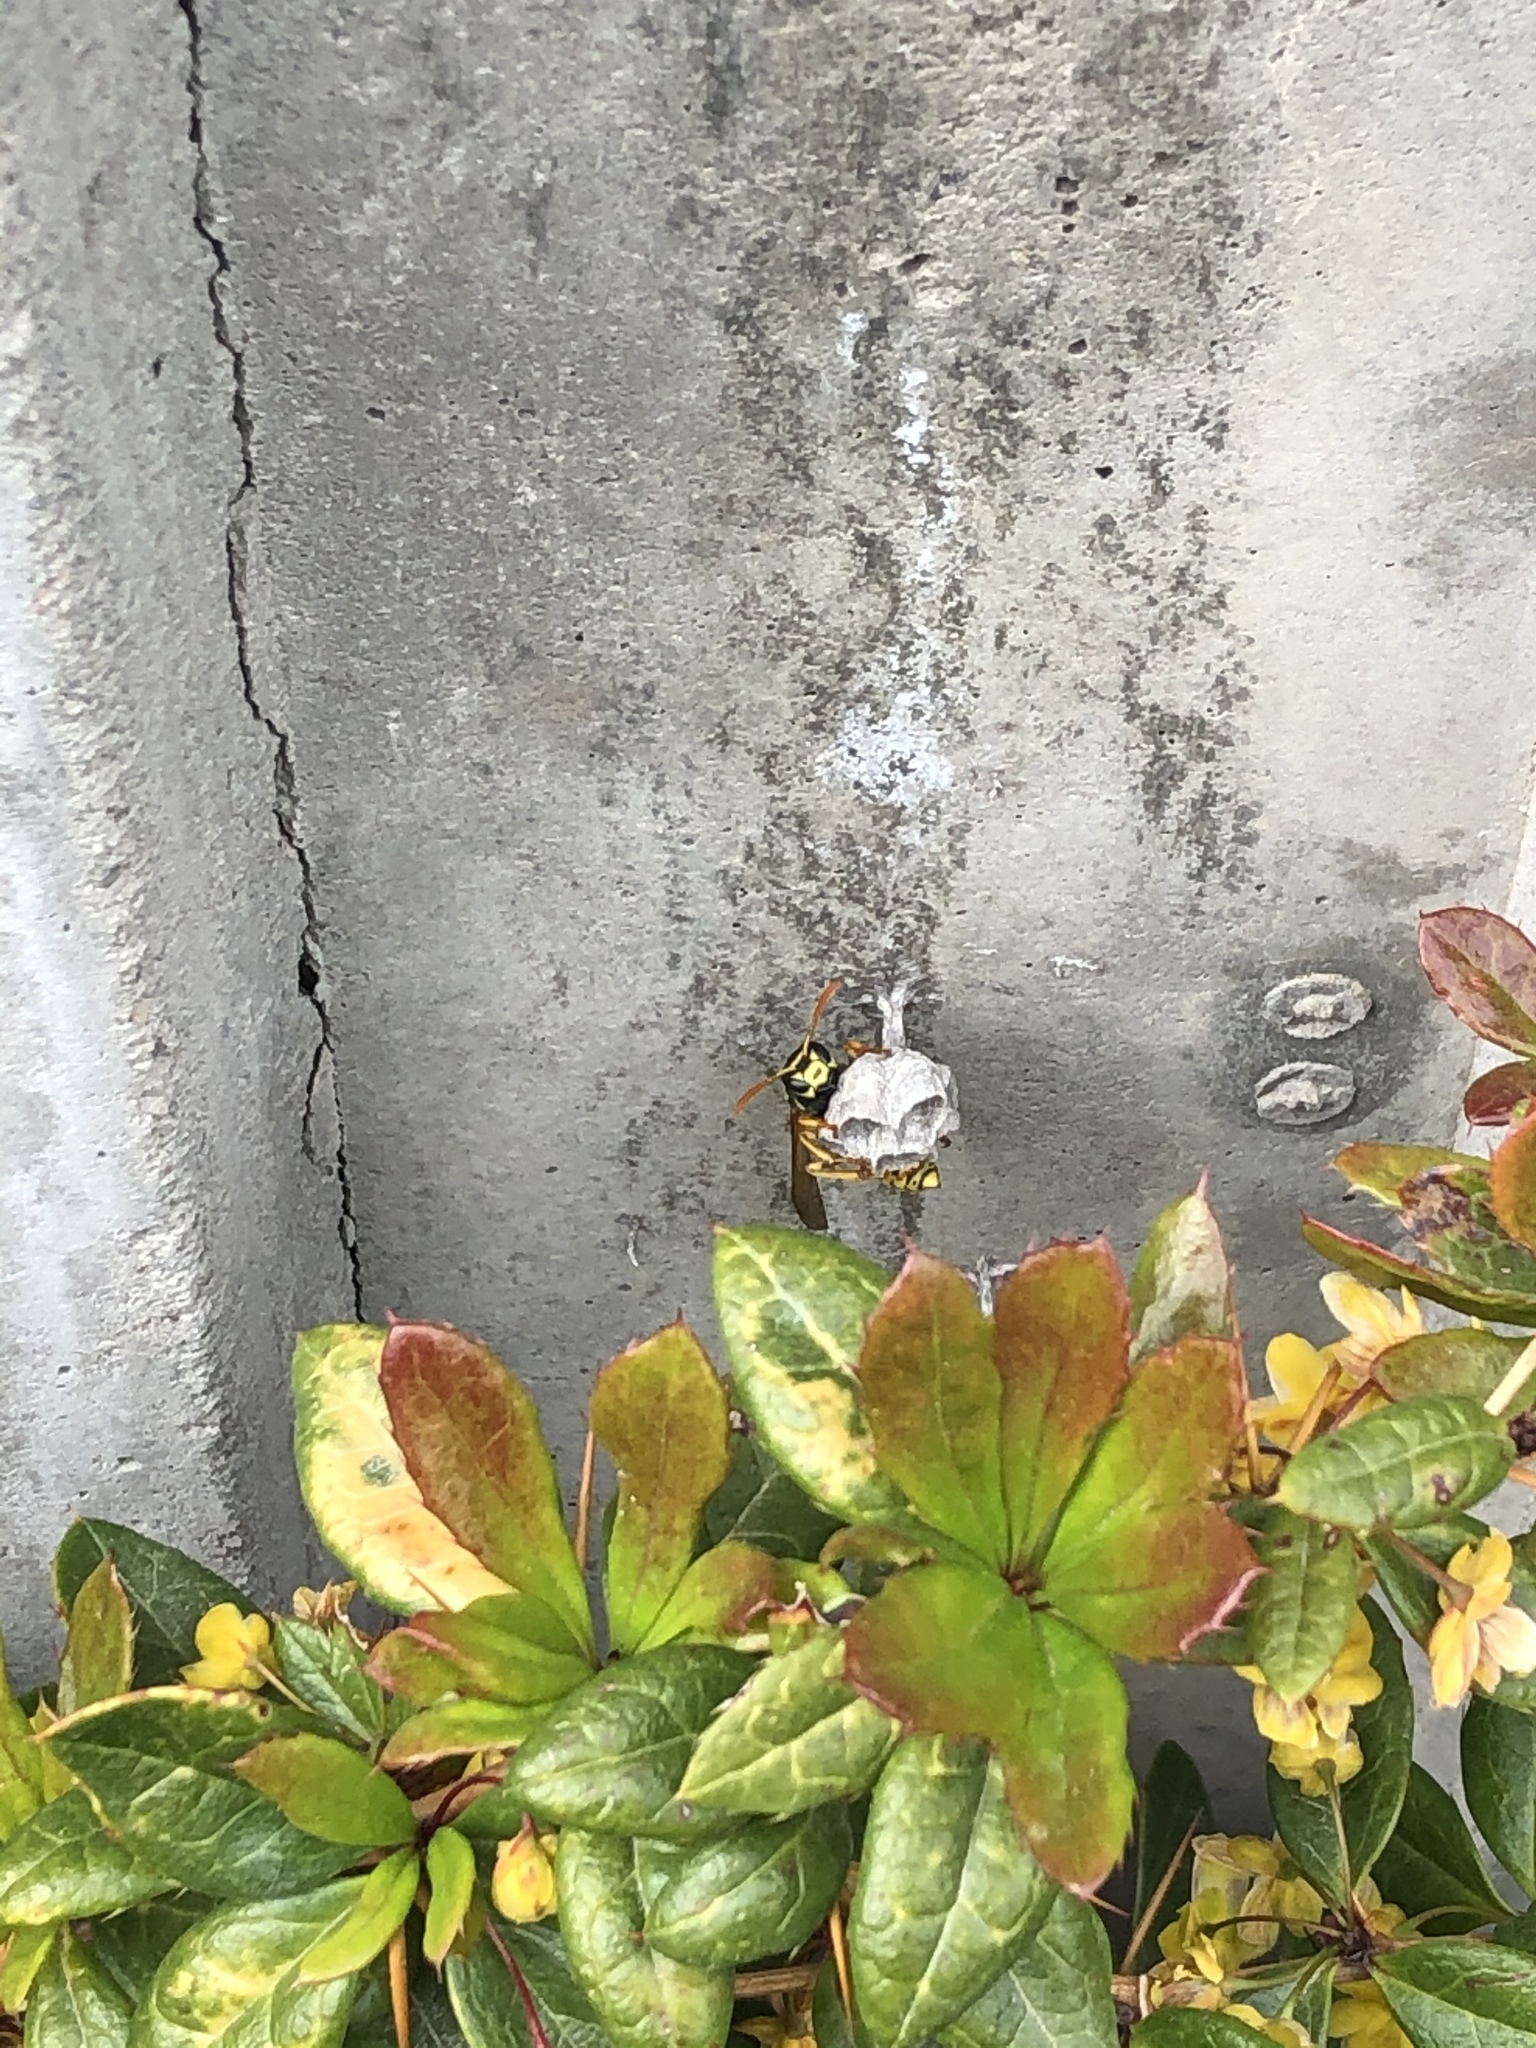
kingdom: Animalia
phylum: Arthropoda
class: Insecta
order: Hymenoptera
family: Eumenidae
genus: Polistes
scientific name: Polistes dominula
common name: Paper wasp
